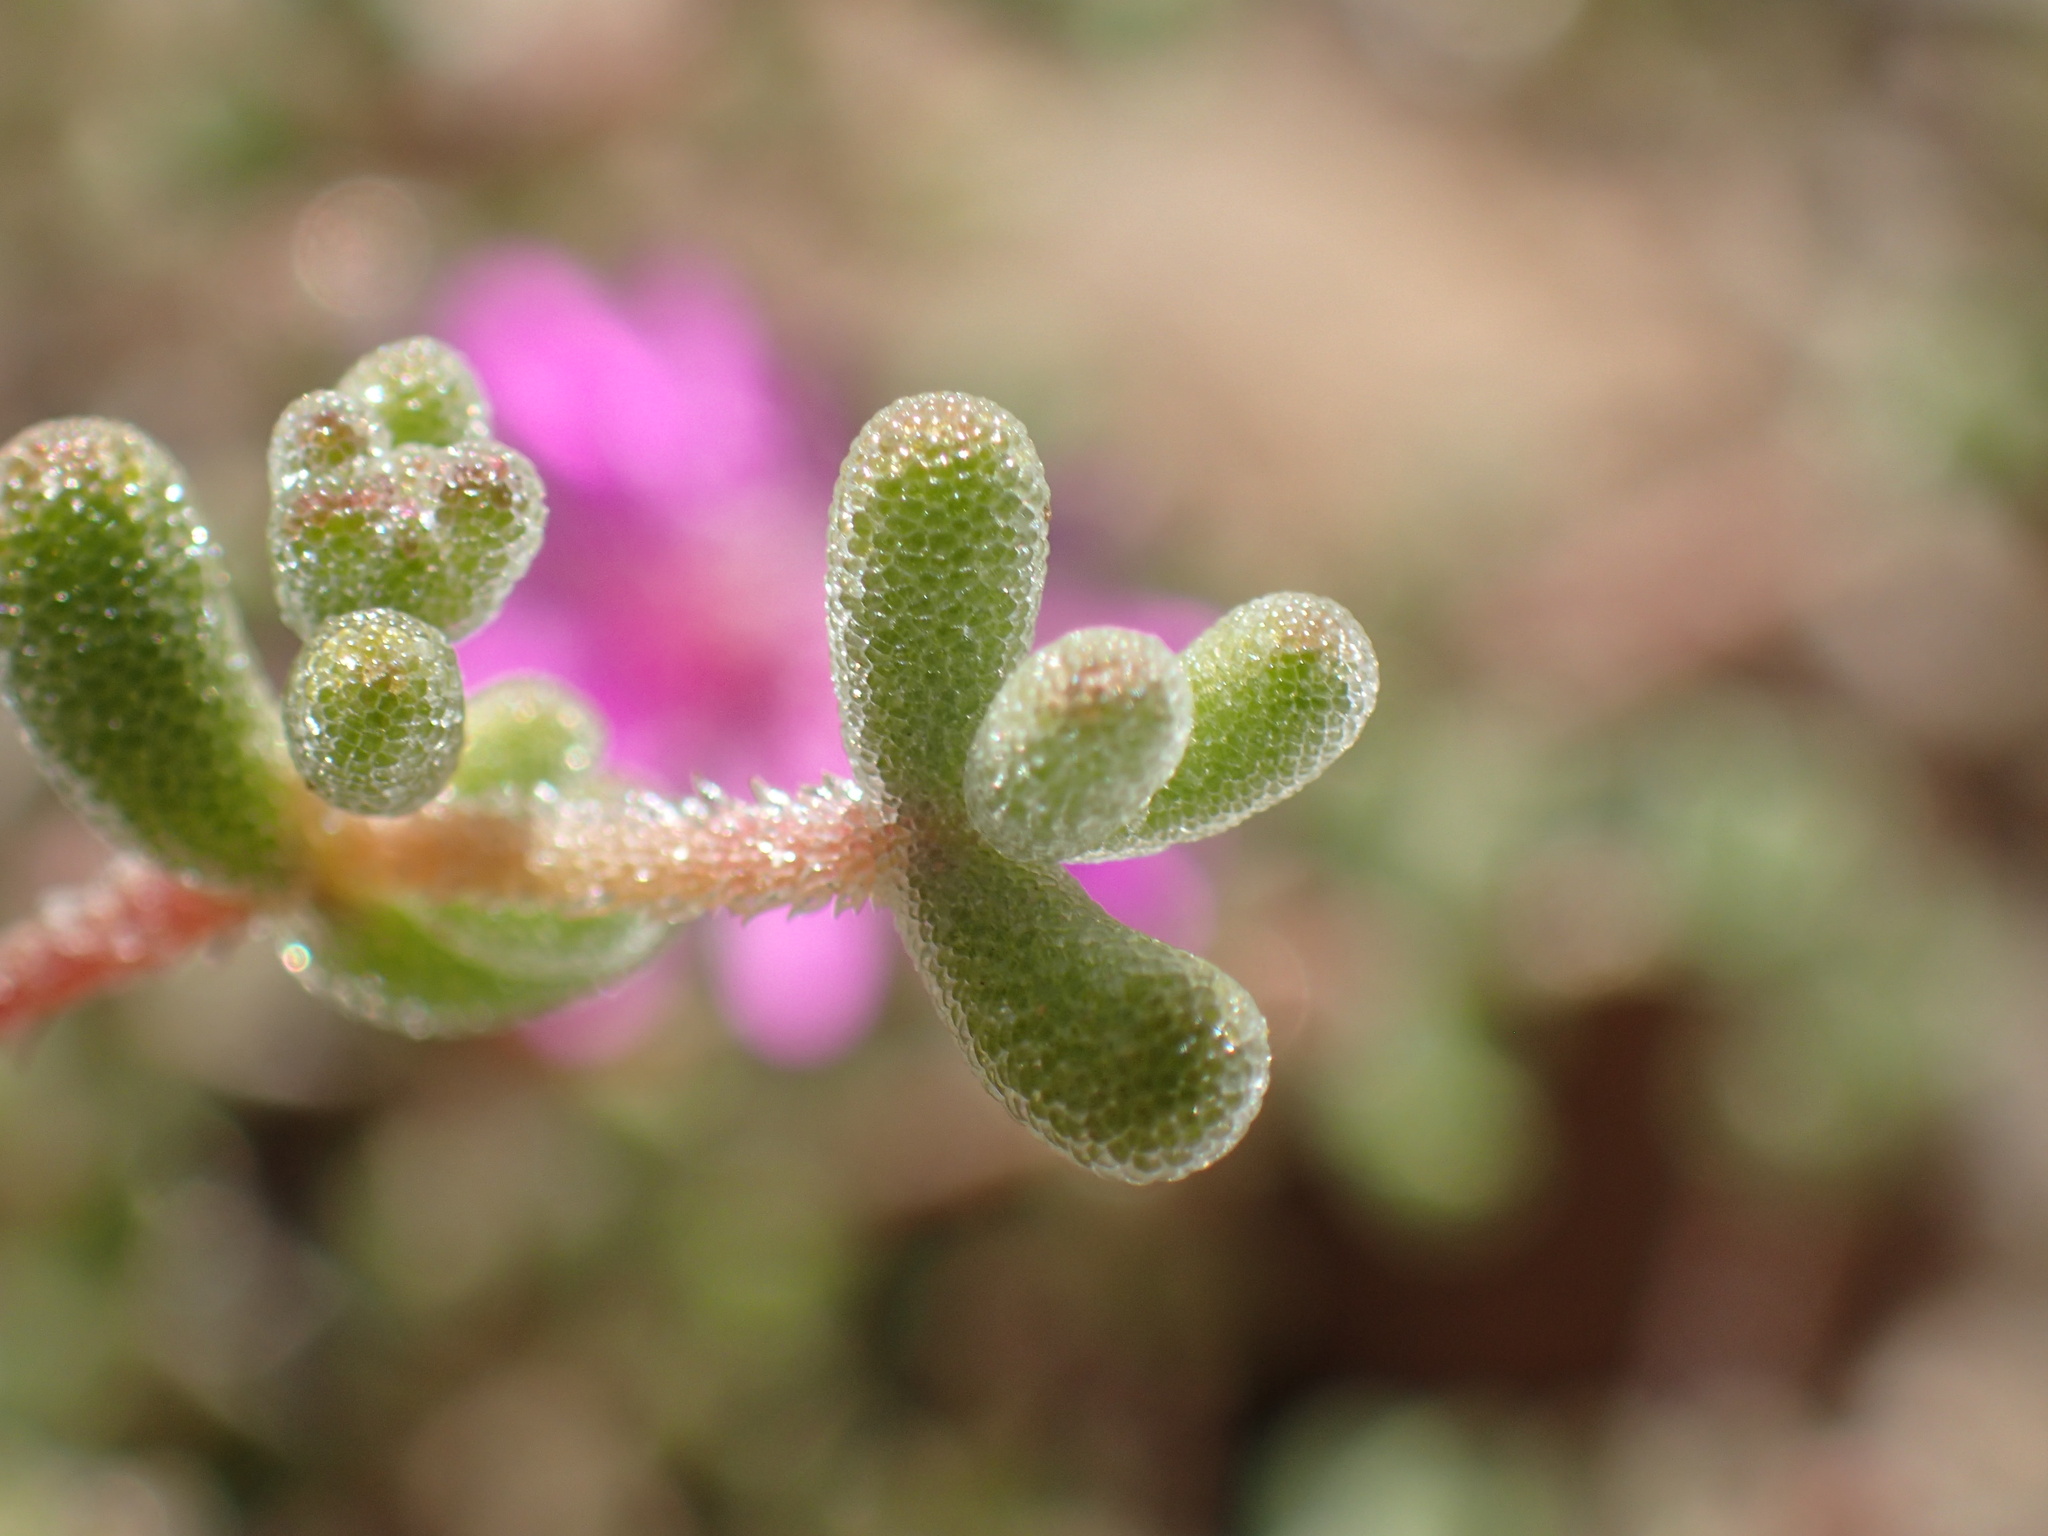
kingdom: Plantae
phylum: Tracheophyta
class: Magnoliopsida
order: Caryophyllales
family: Aizoaceae
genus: Drosanthemum
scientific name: Drosanthemum pauper
